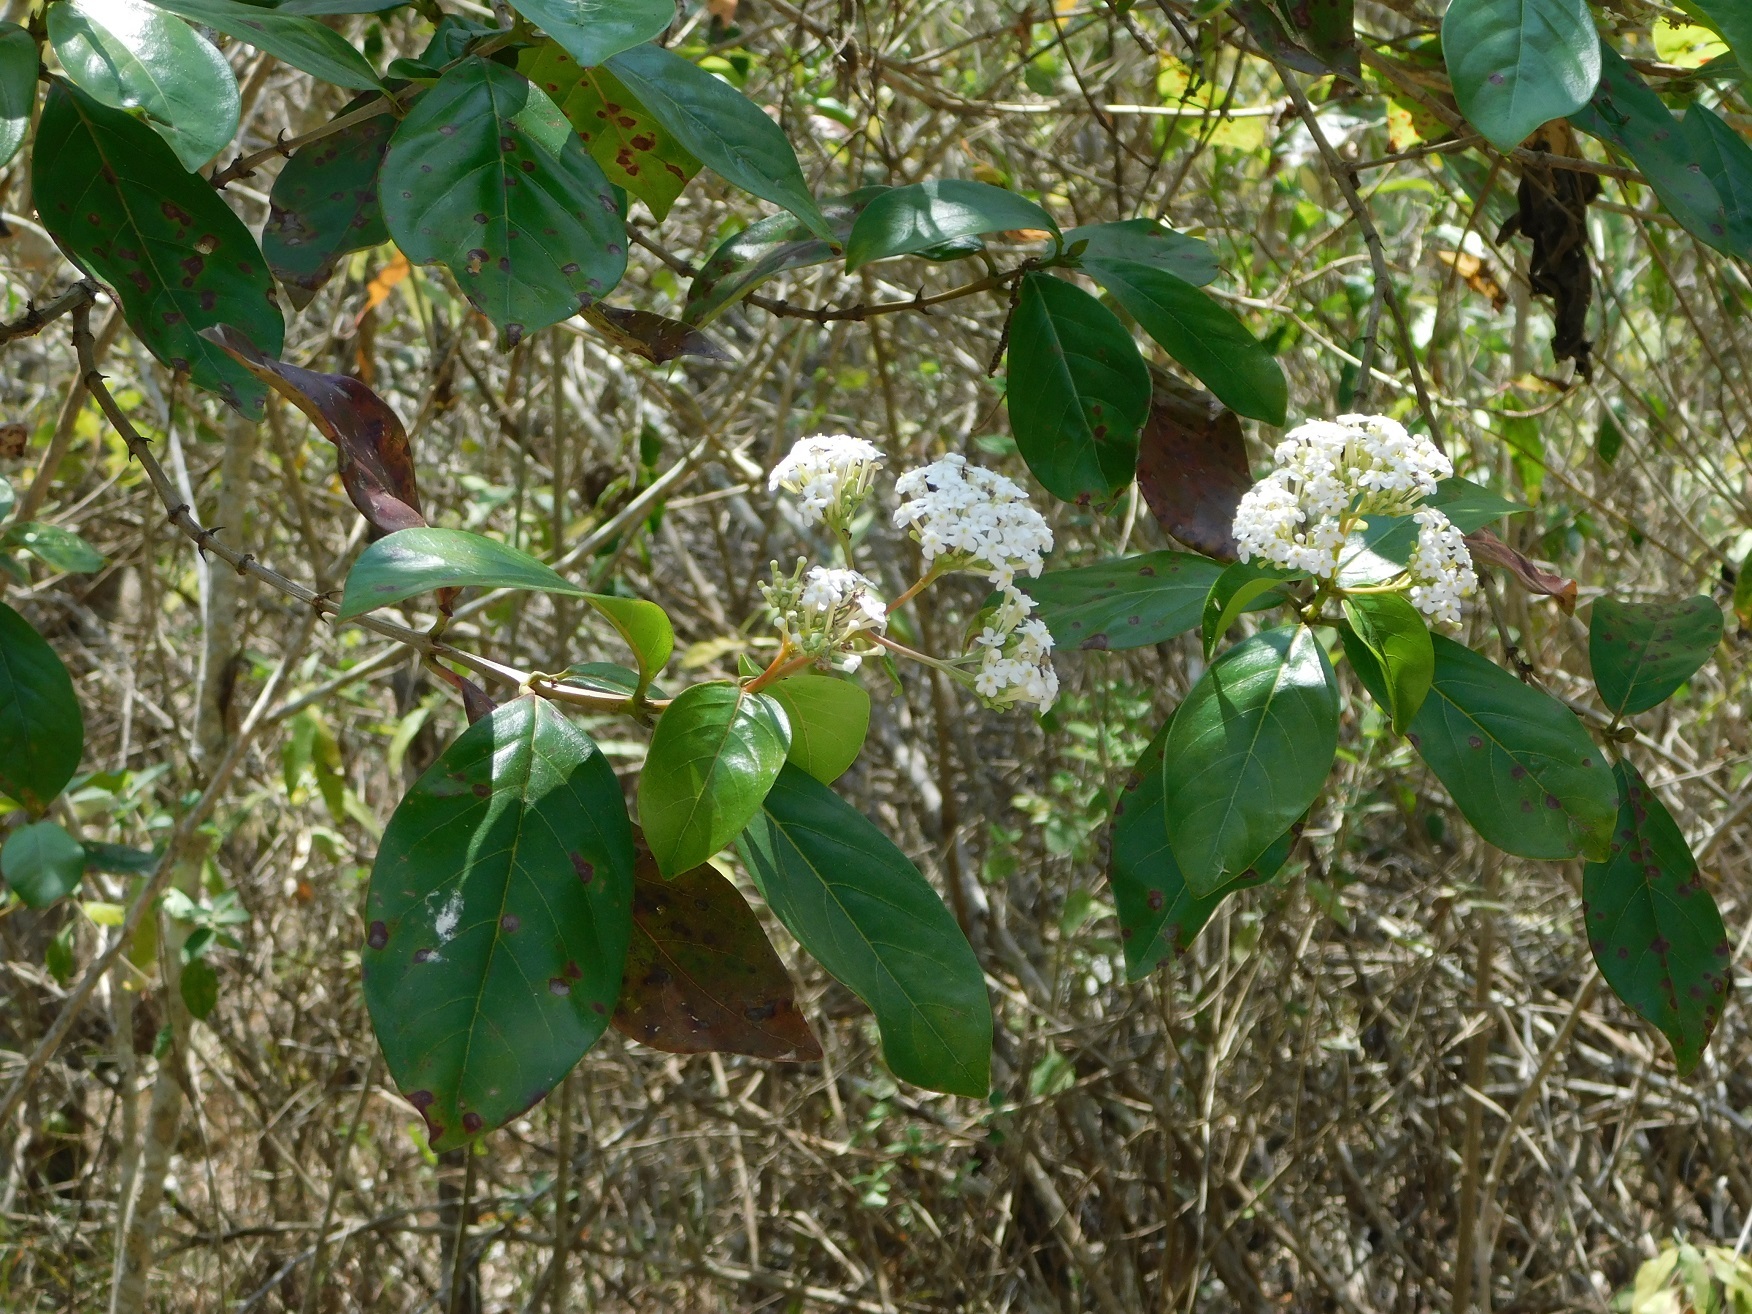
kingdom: Plantae
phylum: Tracheophyta
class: Magnoliopsida
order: Gentianales
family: Rubiaceae
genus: Rogiera
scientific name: Rogiera stenosiphon
